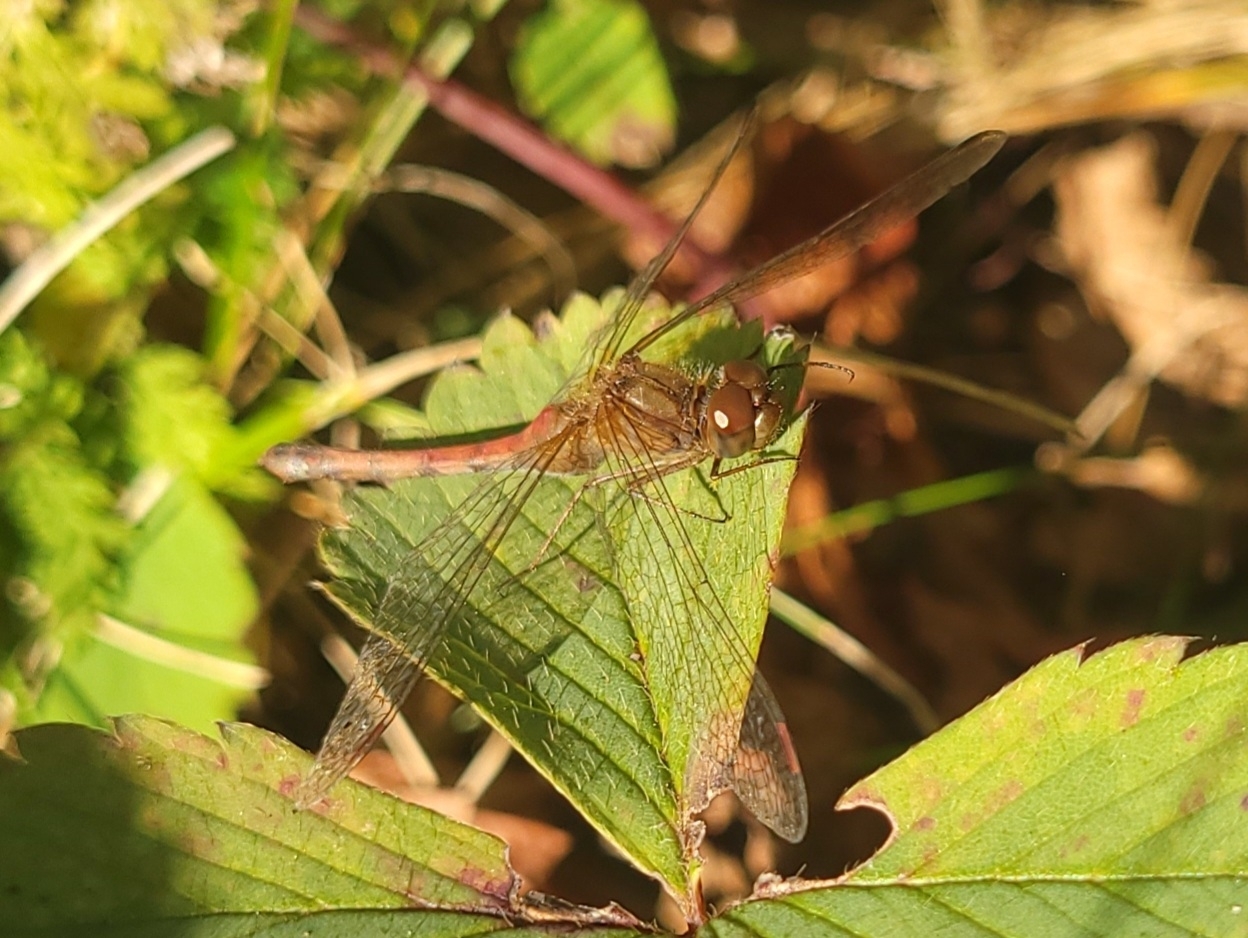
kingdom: Animalia
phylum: Arthropoda
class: Insecta
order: Odonata
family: Libellulidae
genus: Sympetrum
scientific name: Sympetrum vicinum
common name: Autumn meadowhawk
